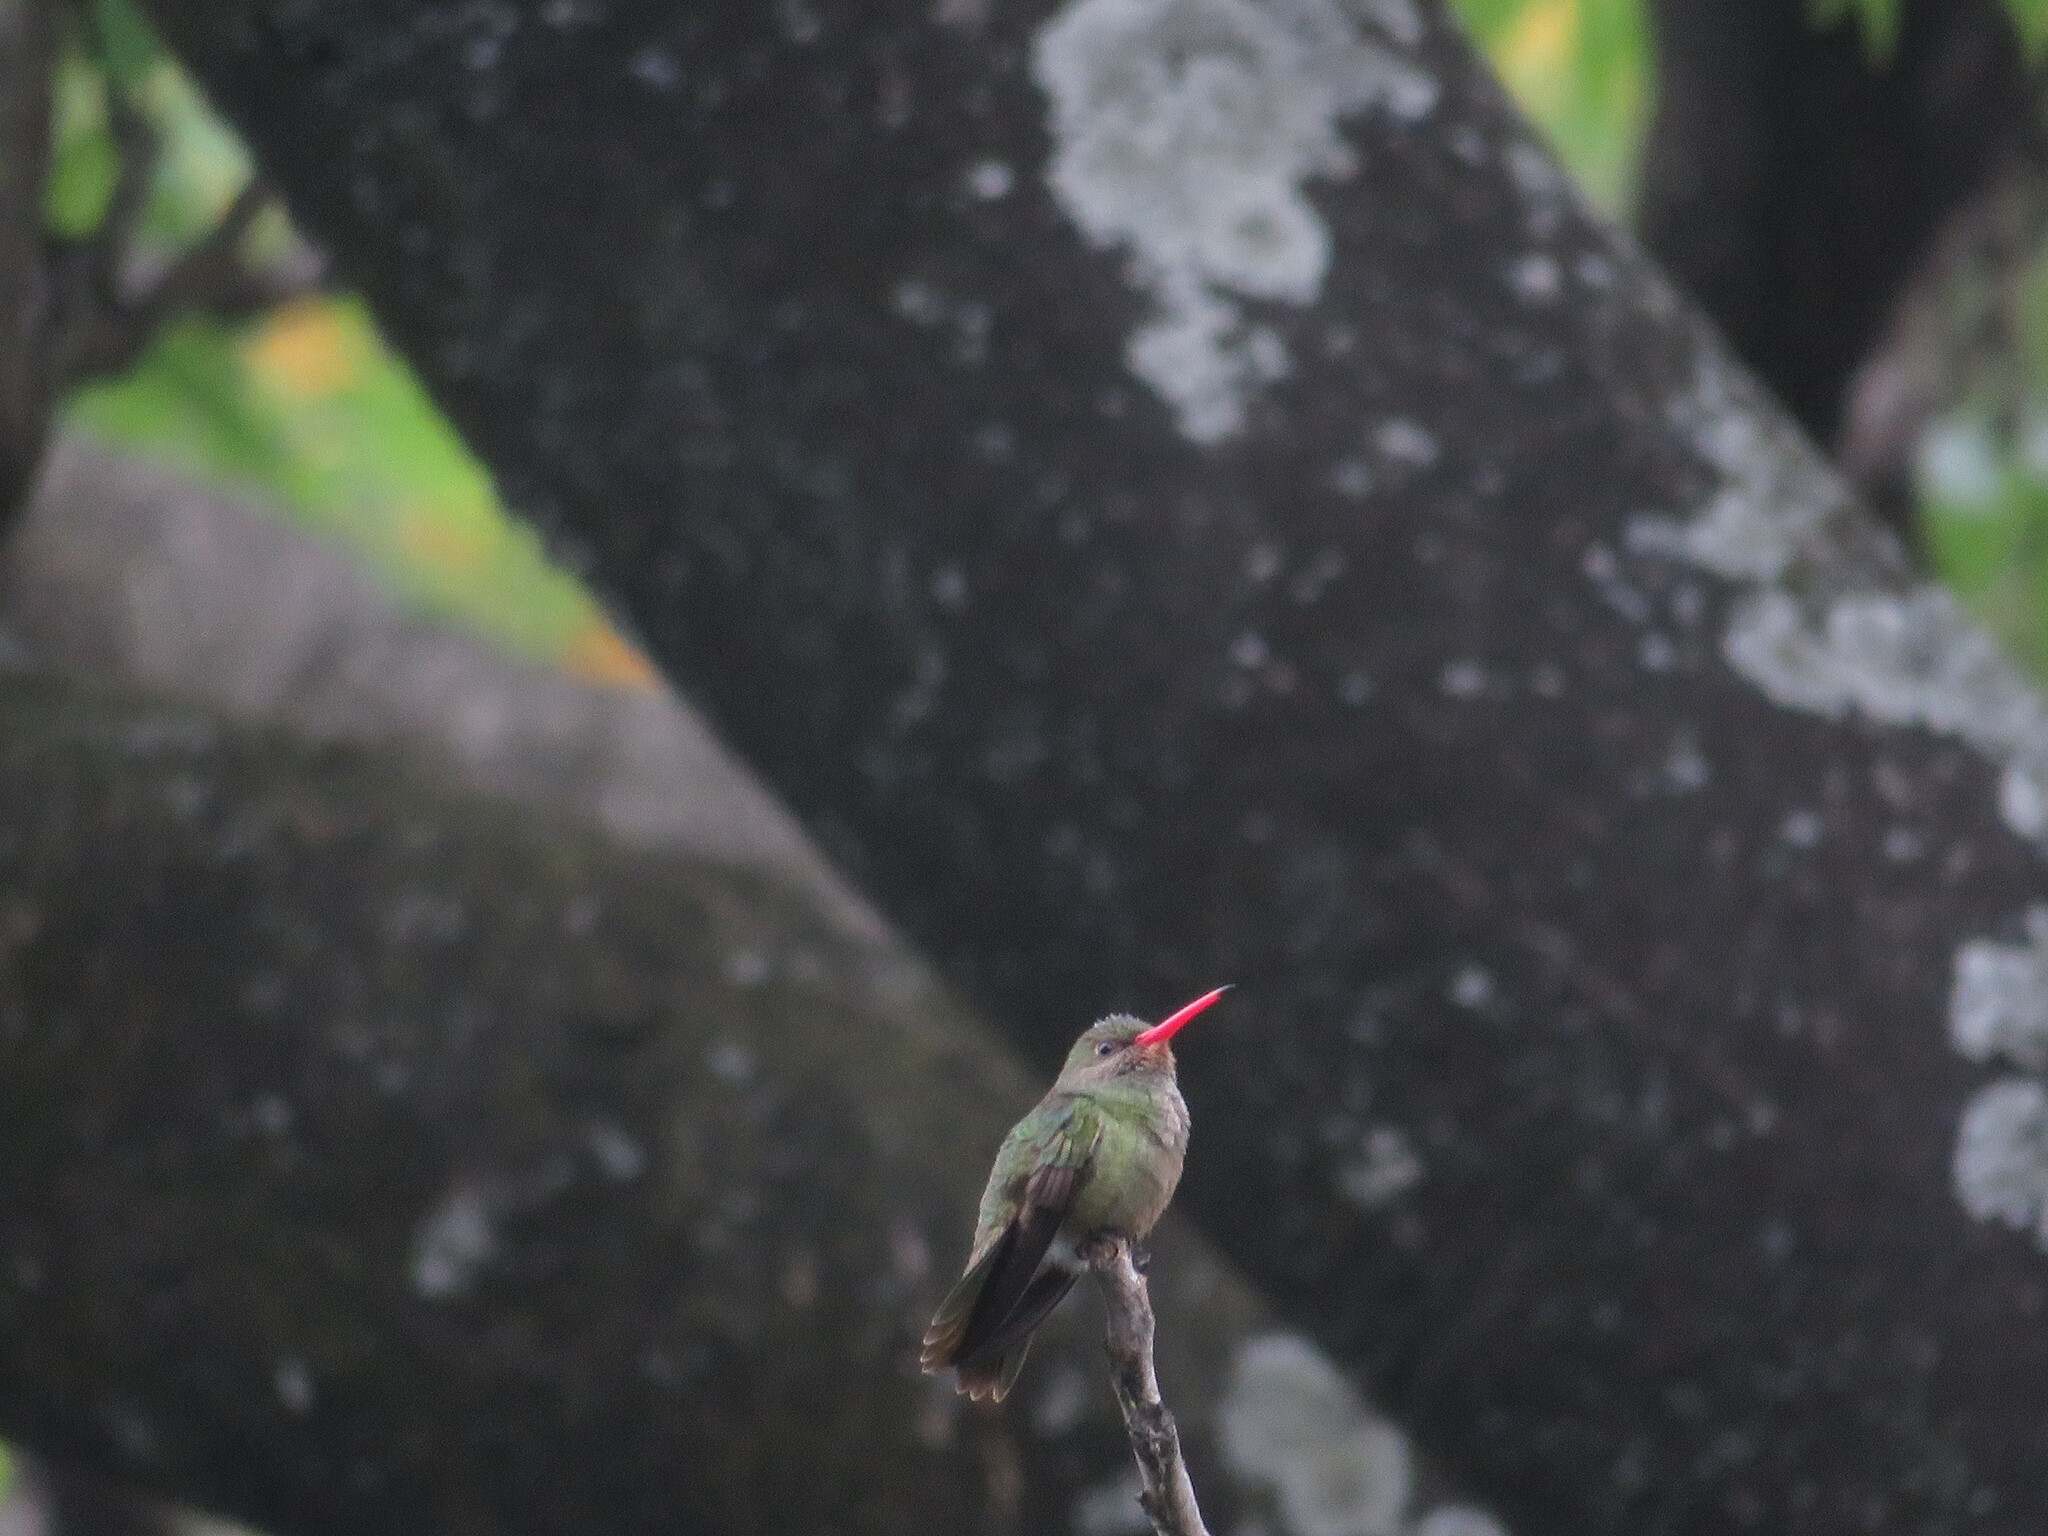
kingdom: Animalia
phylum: Chordata
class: Aves
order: Apodiformes
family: Trochilidae
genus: Hylocharis
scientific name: Hylocharis chrysura
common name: Gilded sapphire
